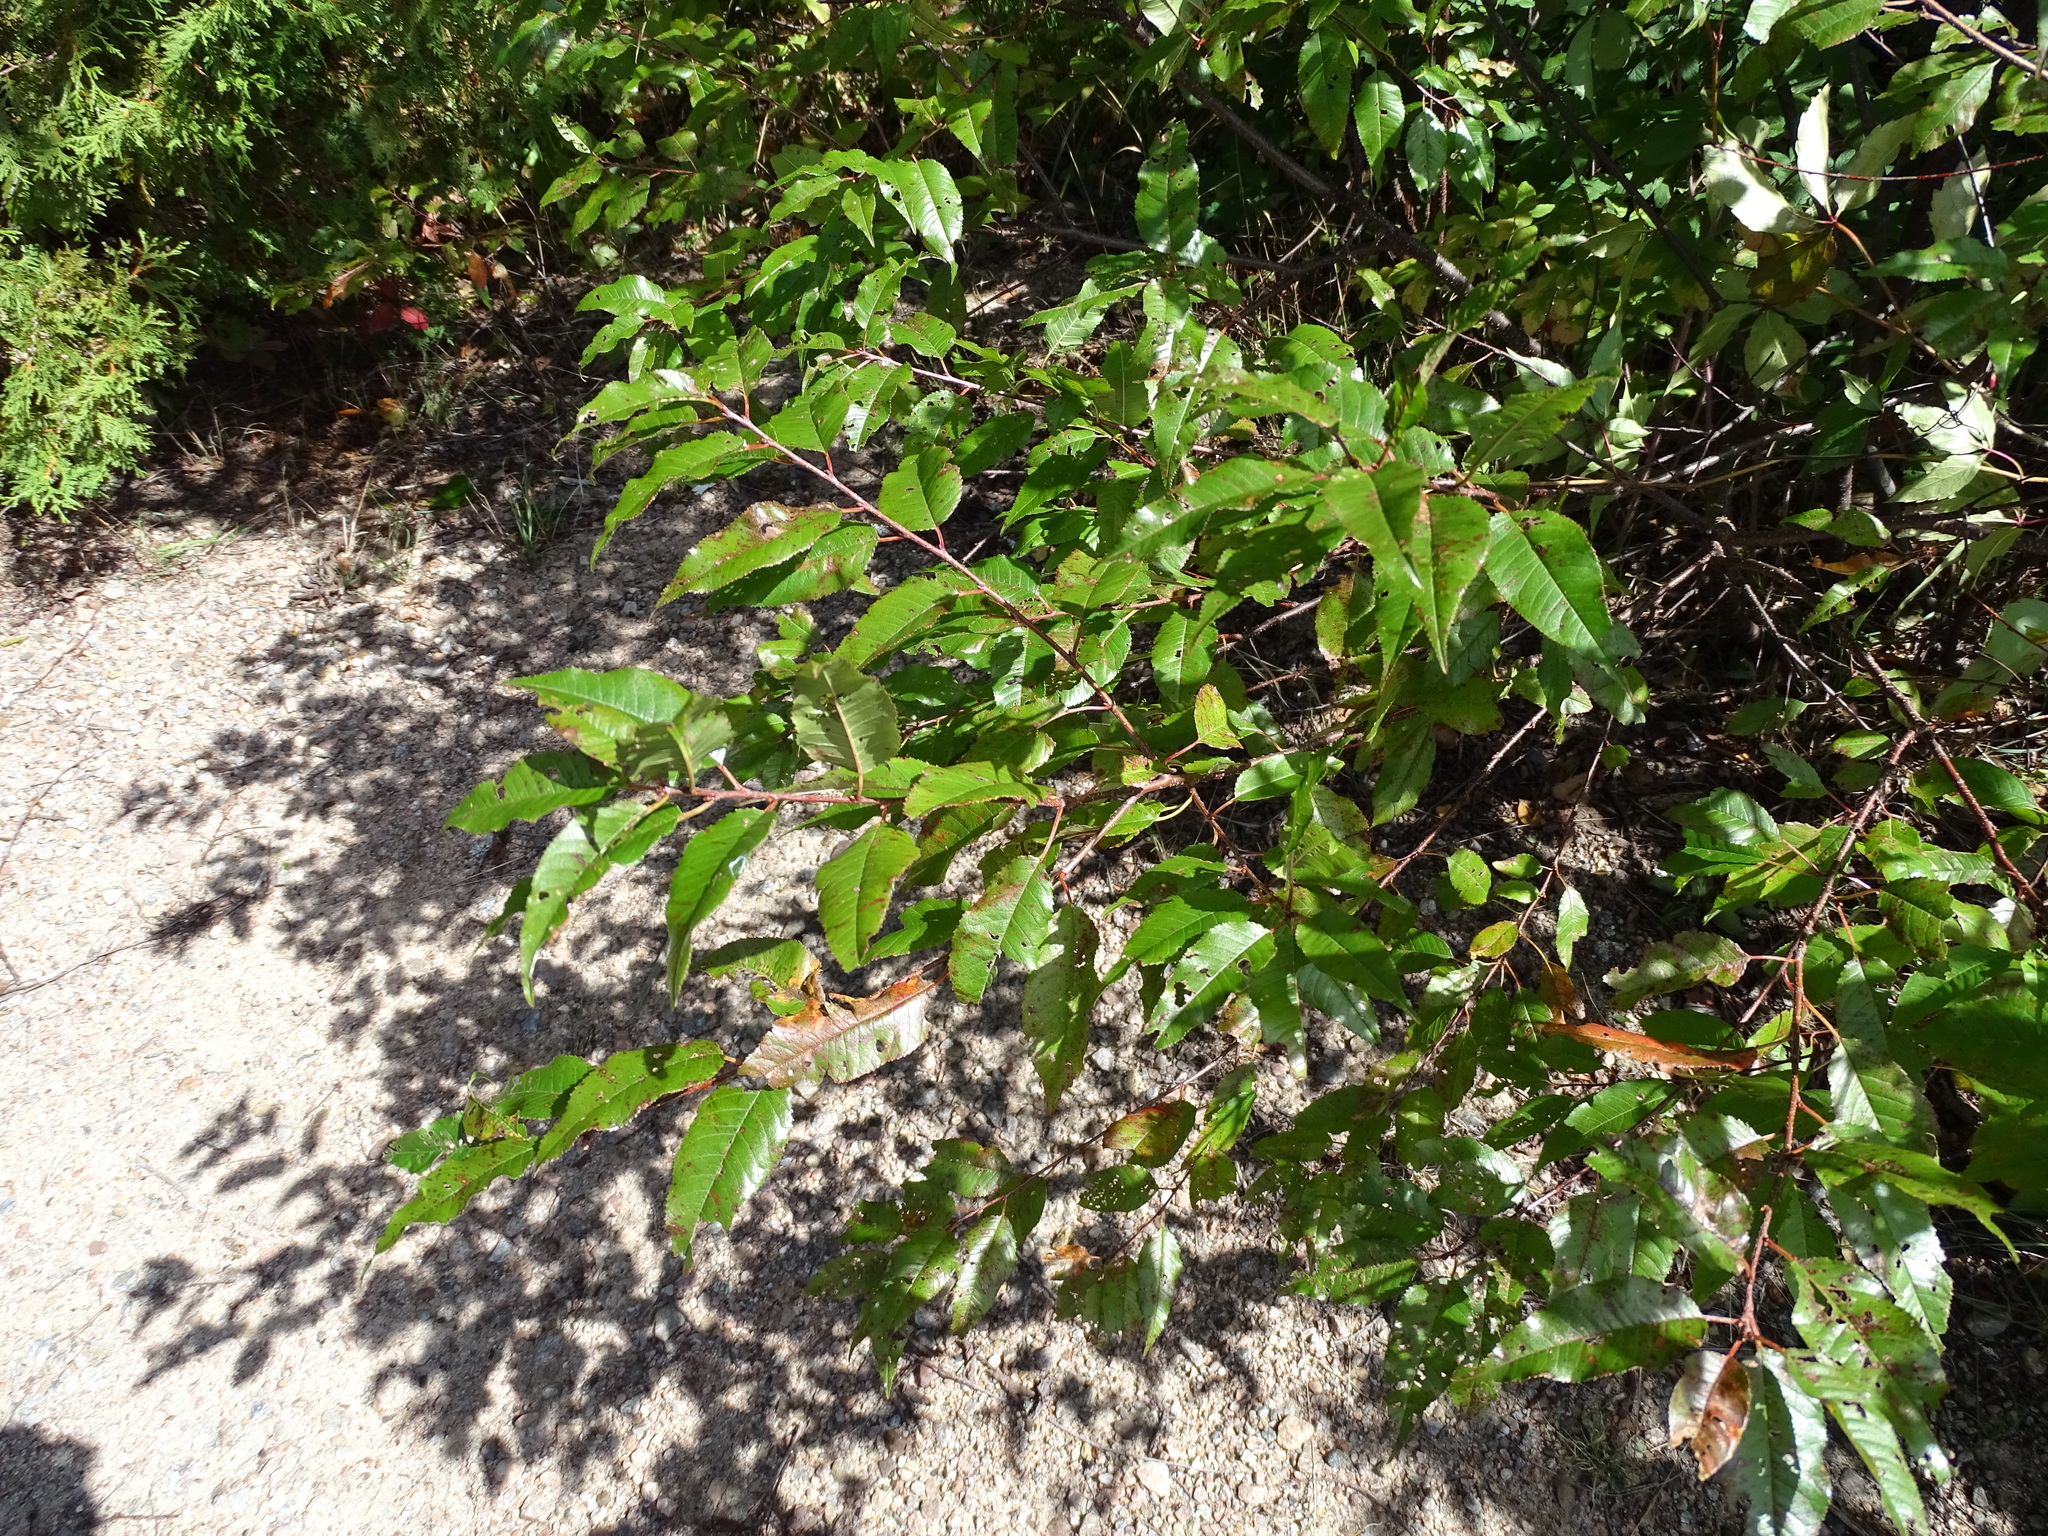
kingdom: Plantae
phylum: Tracheophyta
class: Magnoliopsida
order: Rosales
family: Rosaceae
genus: Prunus
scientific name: Prunus pensylvanica
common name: Pin cherry
